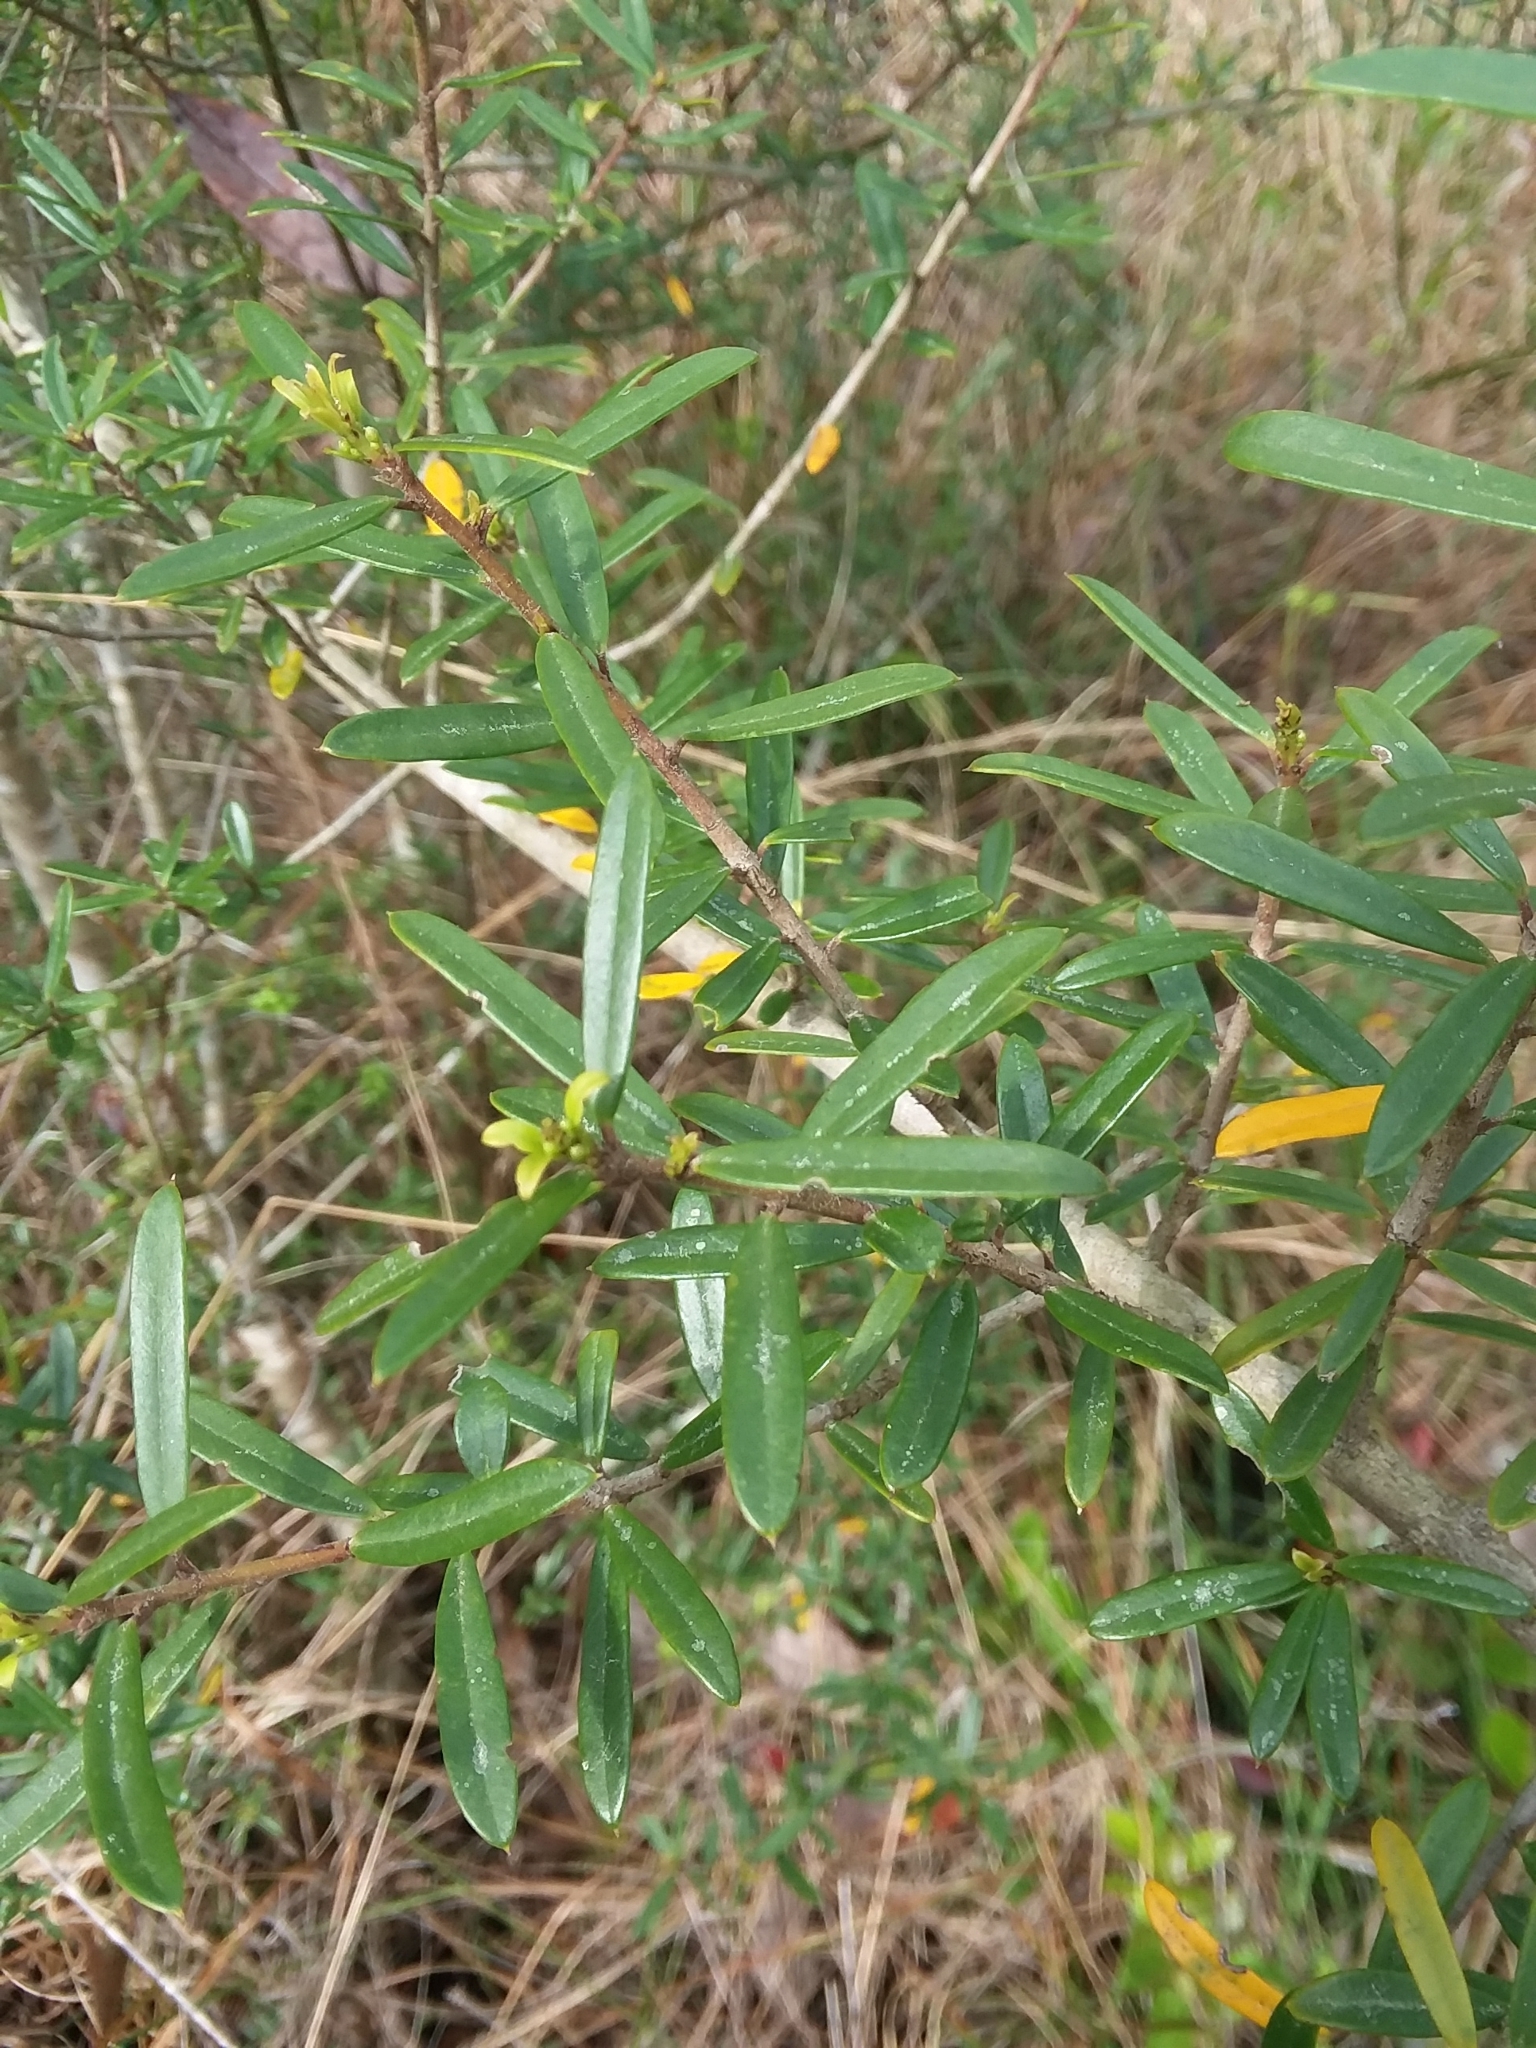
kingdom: Plantae
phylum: Tracheophyta
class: Magnoliopsida
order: Aquifoliales
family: Aquifoliaceae
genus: Ilex
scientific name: Ilex myrtifolia
